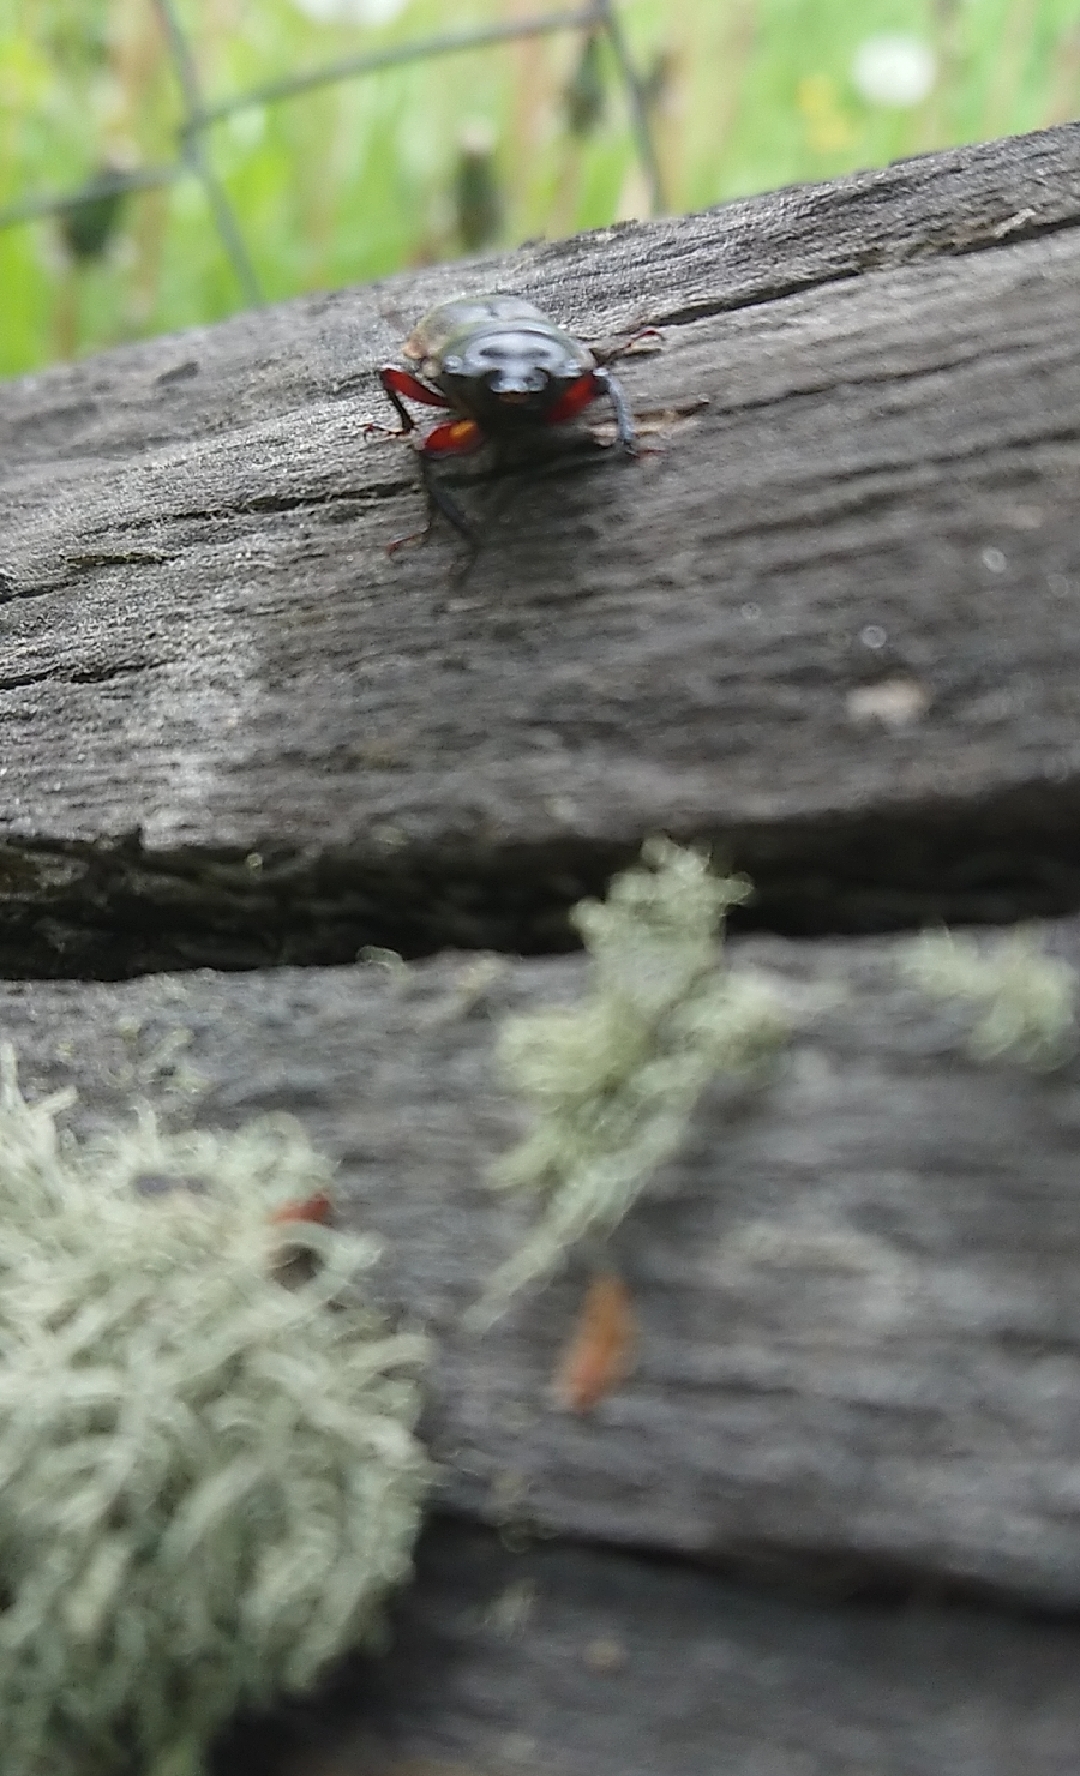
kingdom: Animalia
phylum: Arthropoda
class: Insecta
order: Coleoptera
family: Lucanidae
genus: Erichius
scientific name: Erichius femoralis
